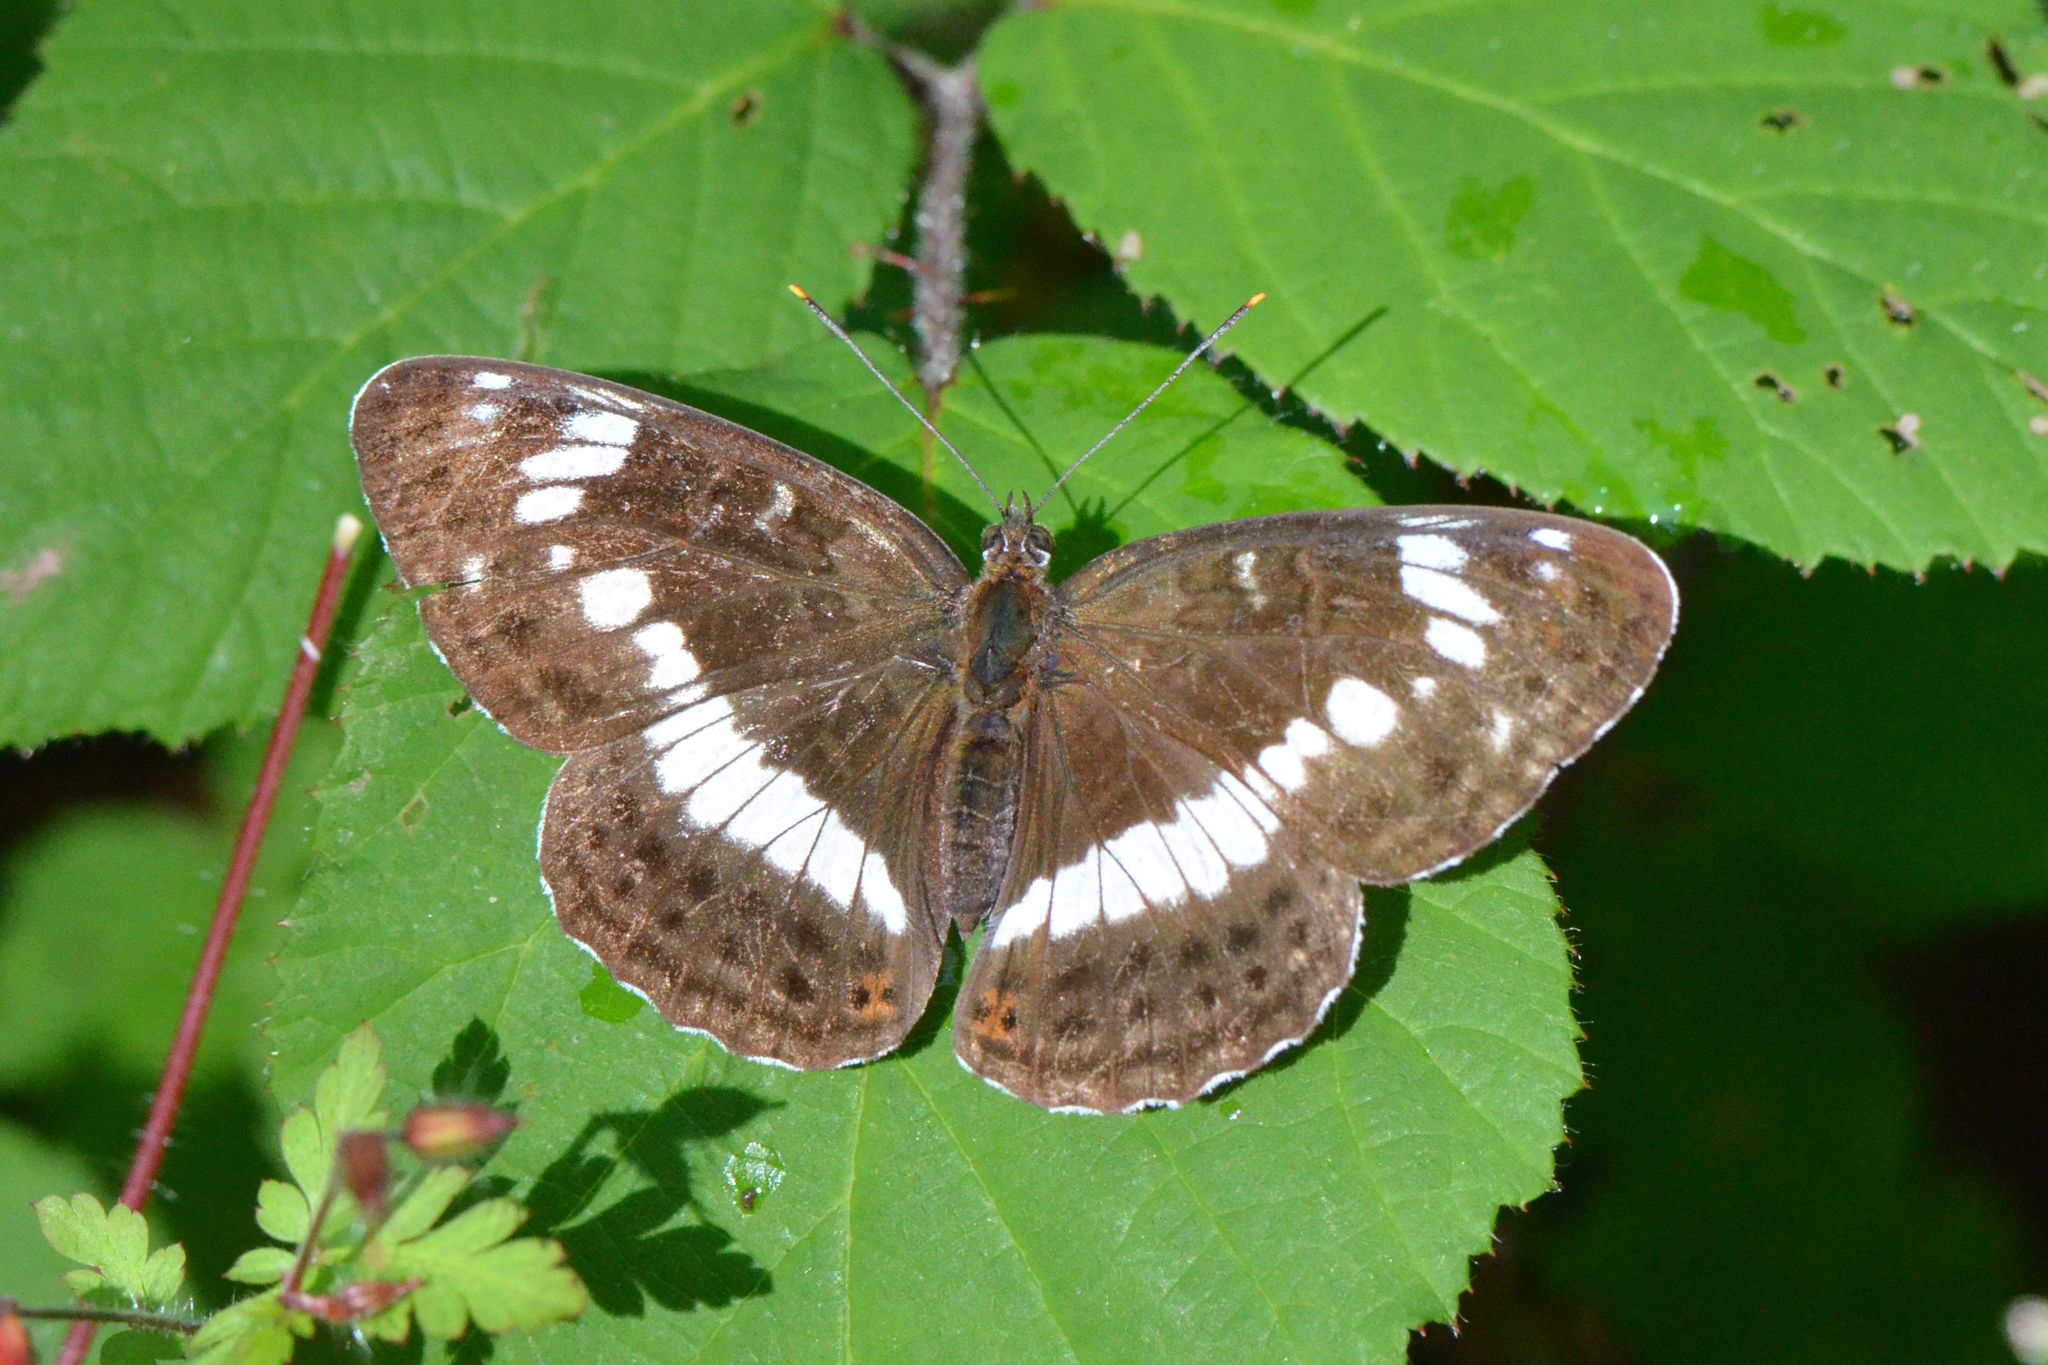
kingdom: Animalia
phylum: Arthropoda
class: Insecta
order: Lepidoptera
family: Nymphalidae
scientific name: Nymphalidae
